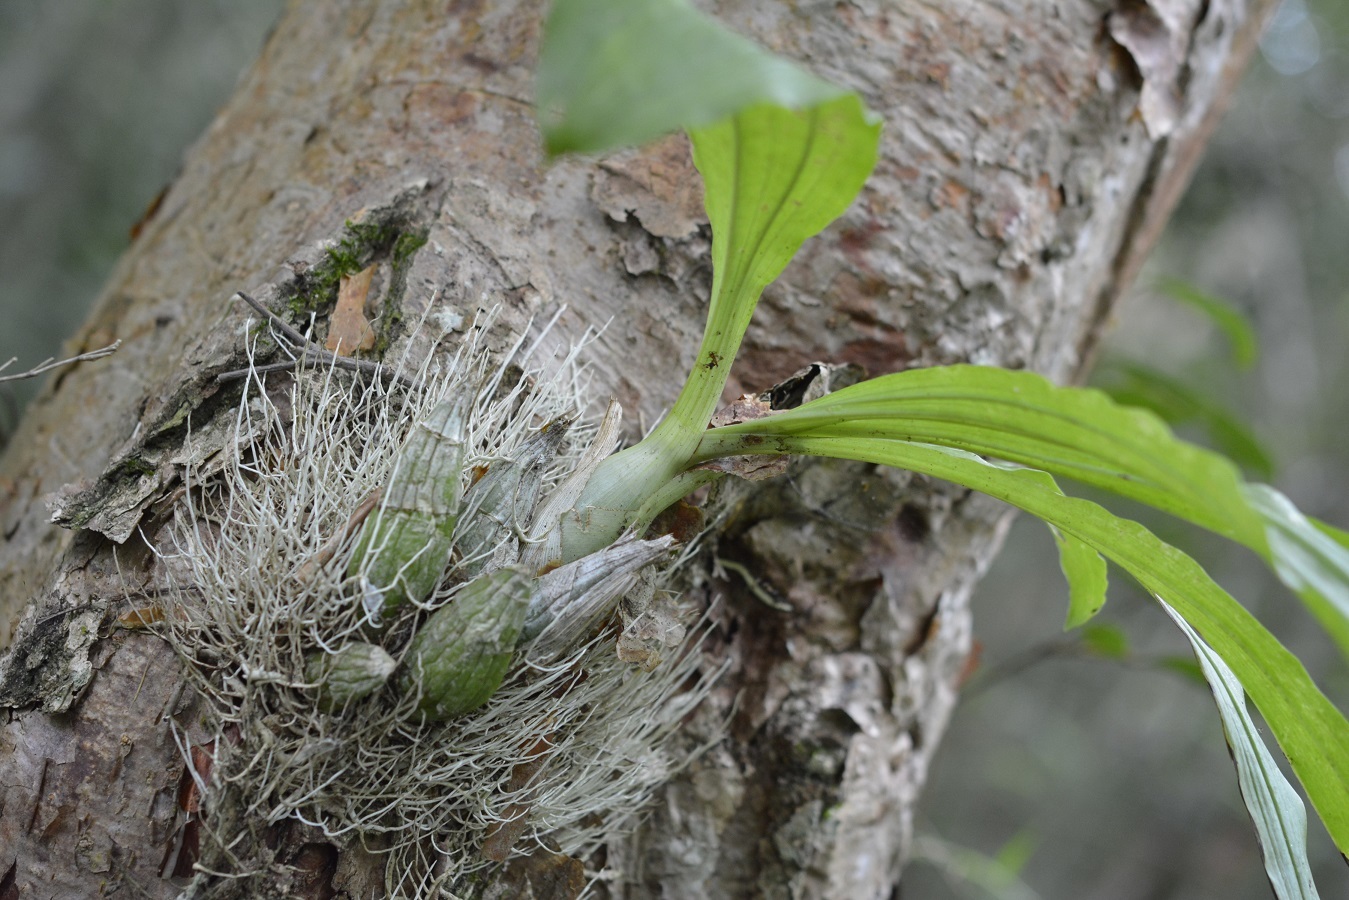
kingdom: Plantae
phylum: Tracheophyta
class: Liliopsida
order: Asparagales
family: Orchidaceae
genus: Catasetum
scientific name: Catasetum integerrimum
